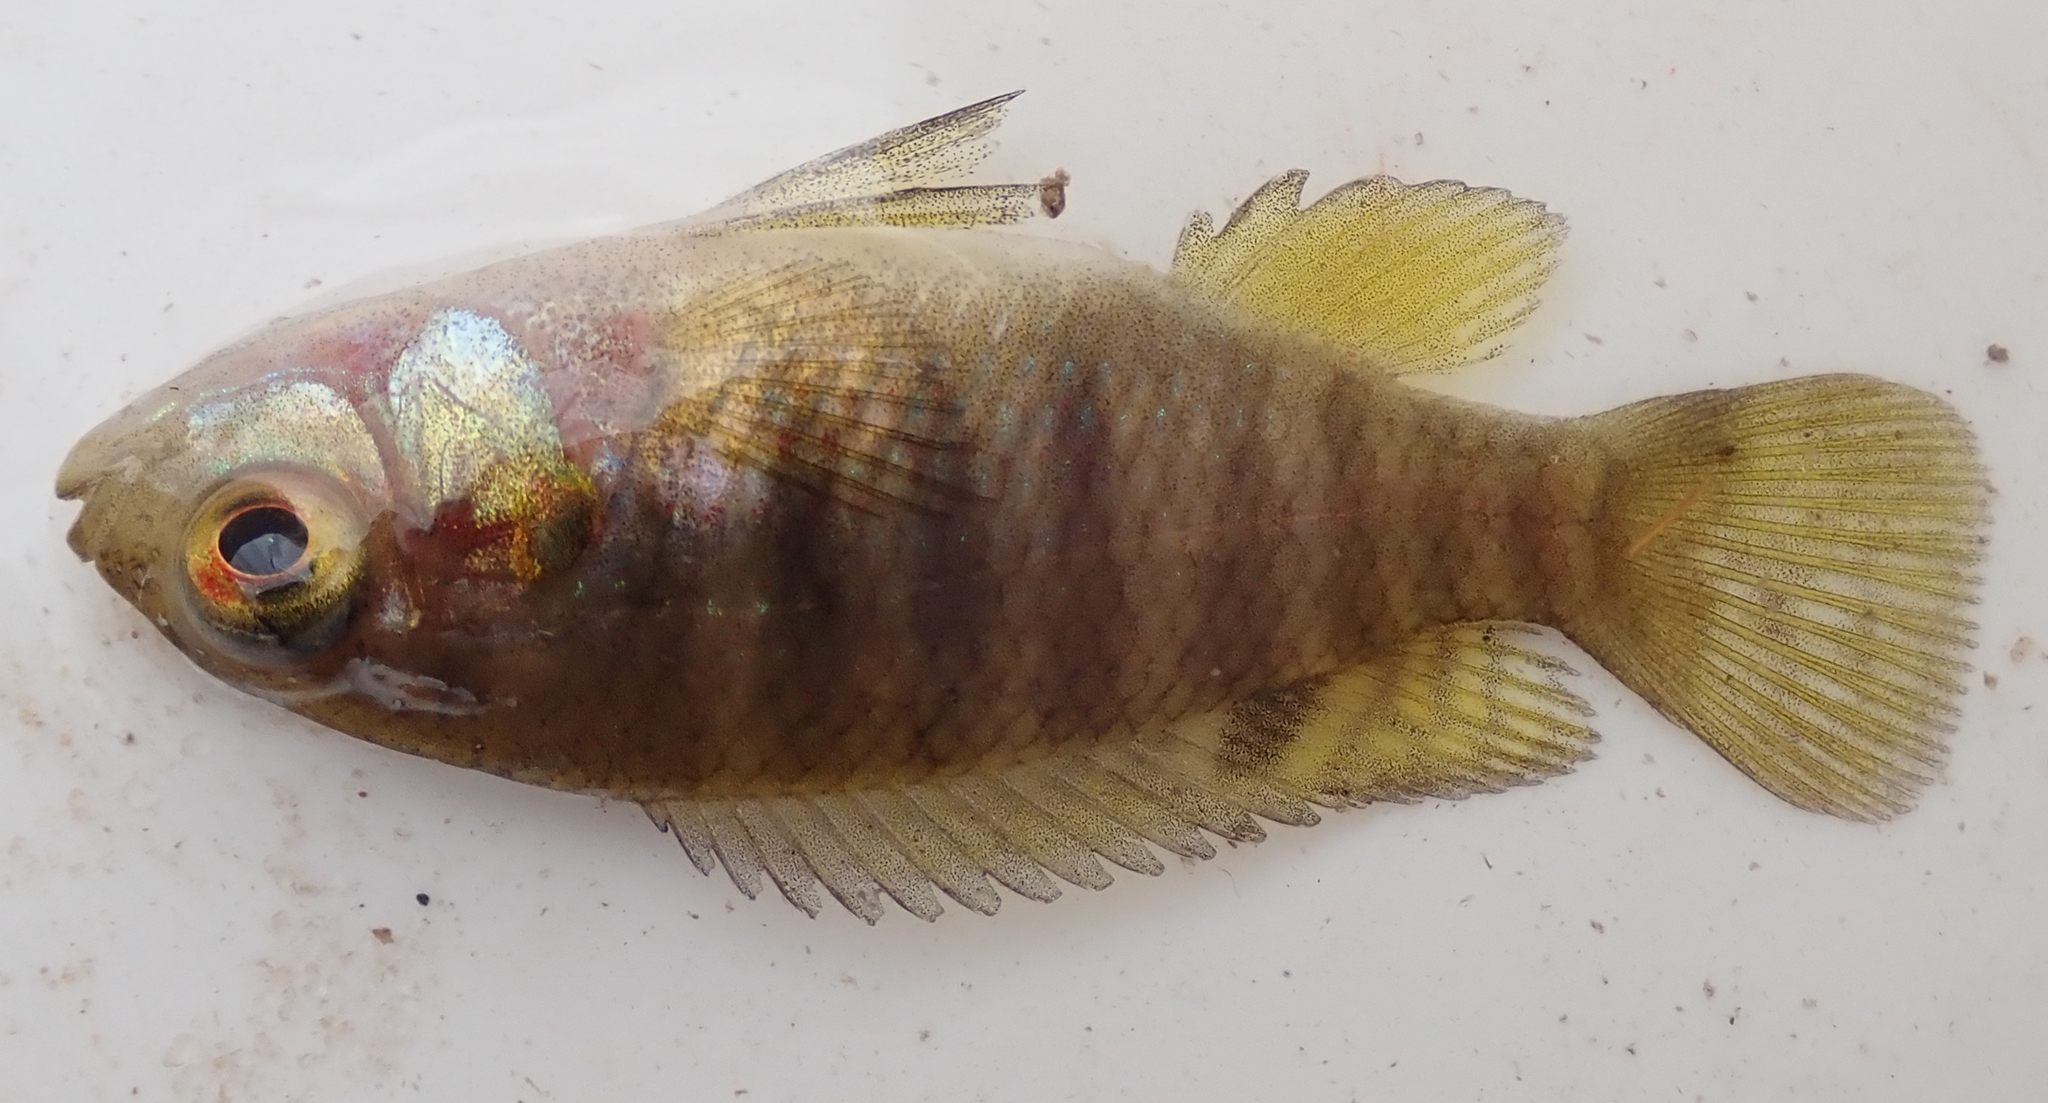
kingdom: Animalia
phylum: Chordata
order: Perciformes
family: Cichlidae
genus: Tilapia
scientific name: Tilapia sparrmanii
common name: Banded tilapia
